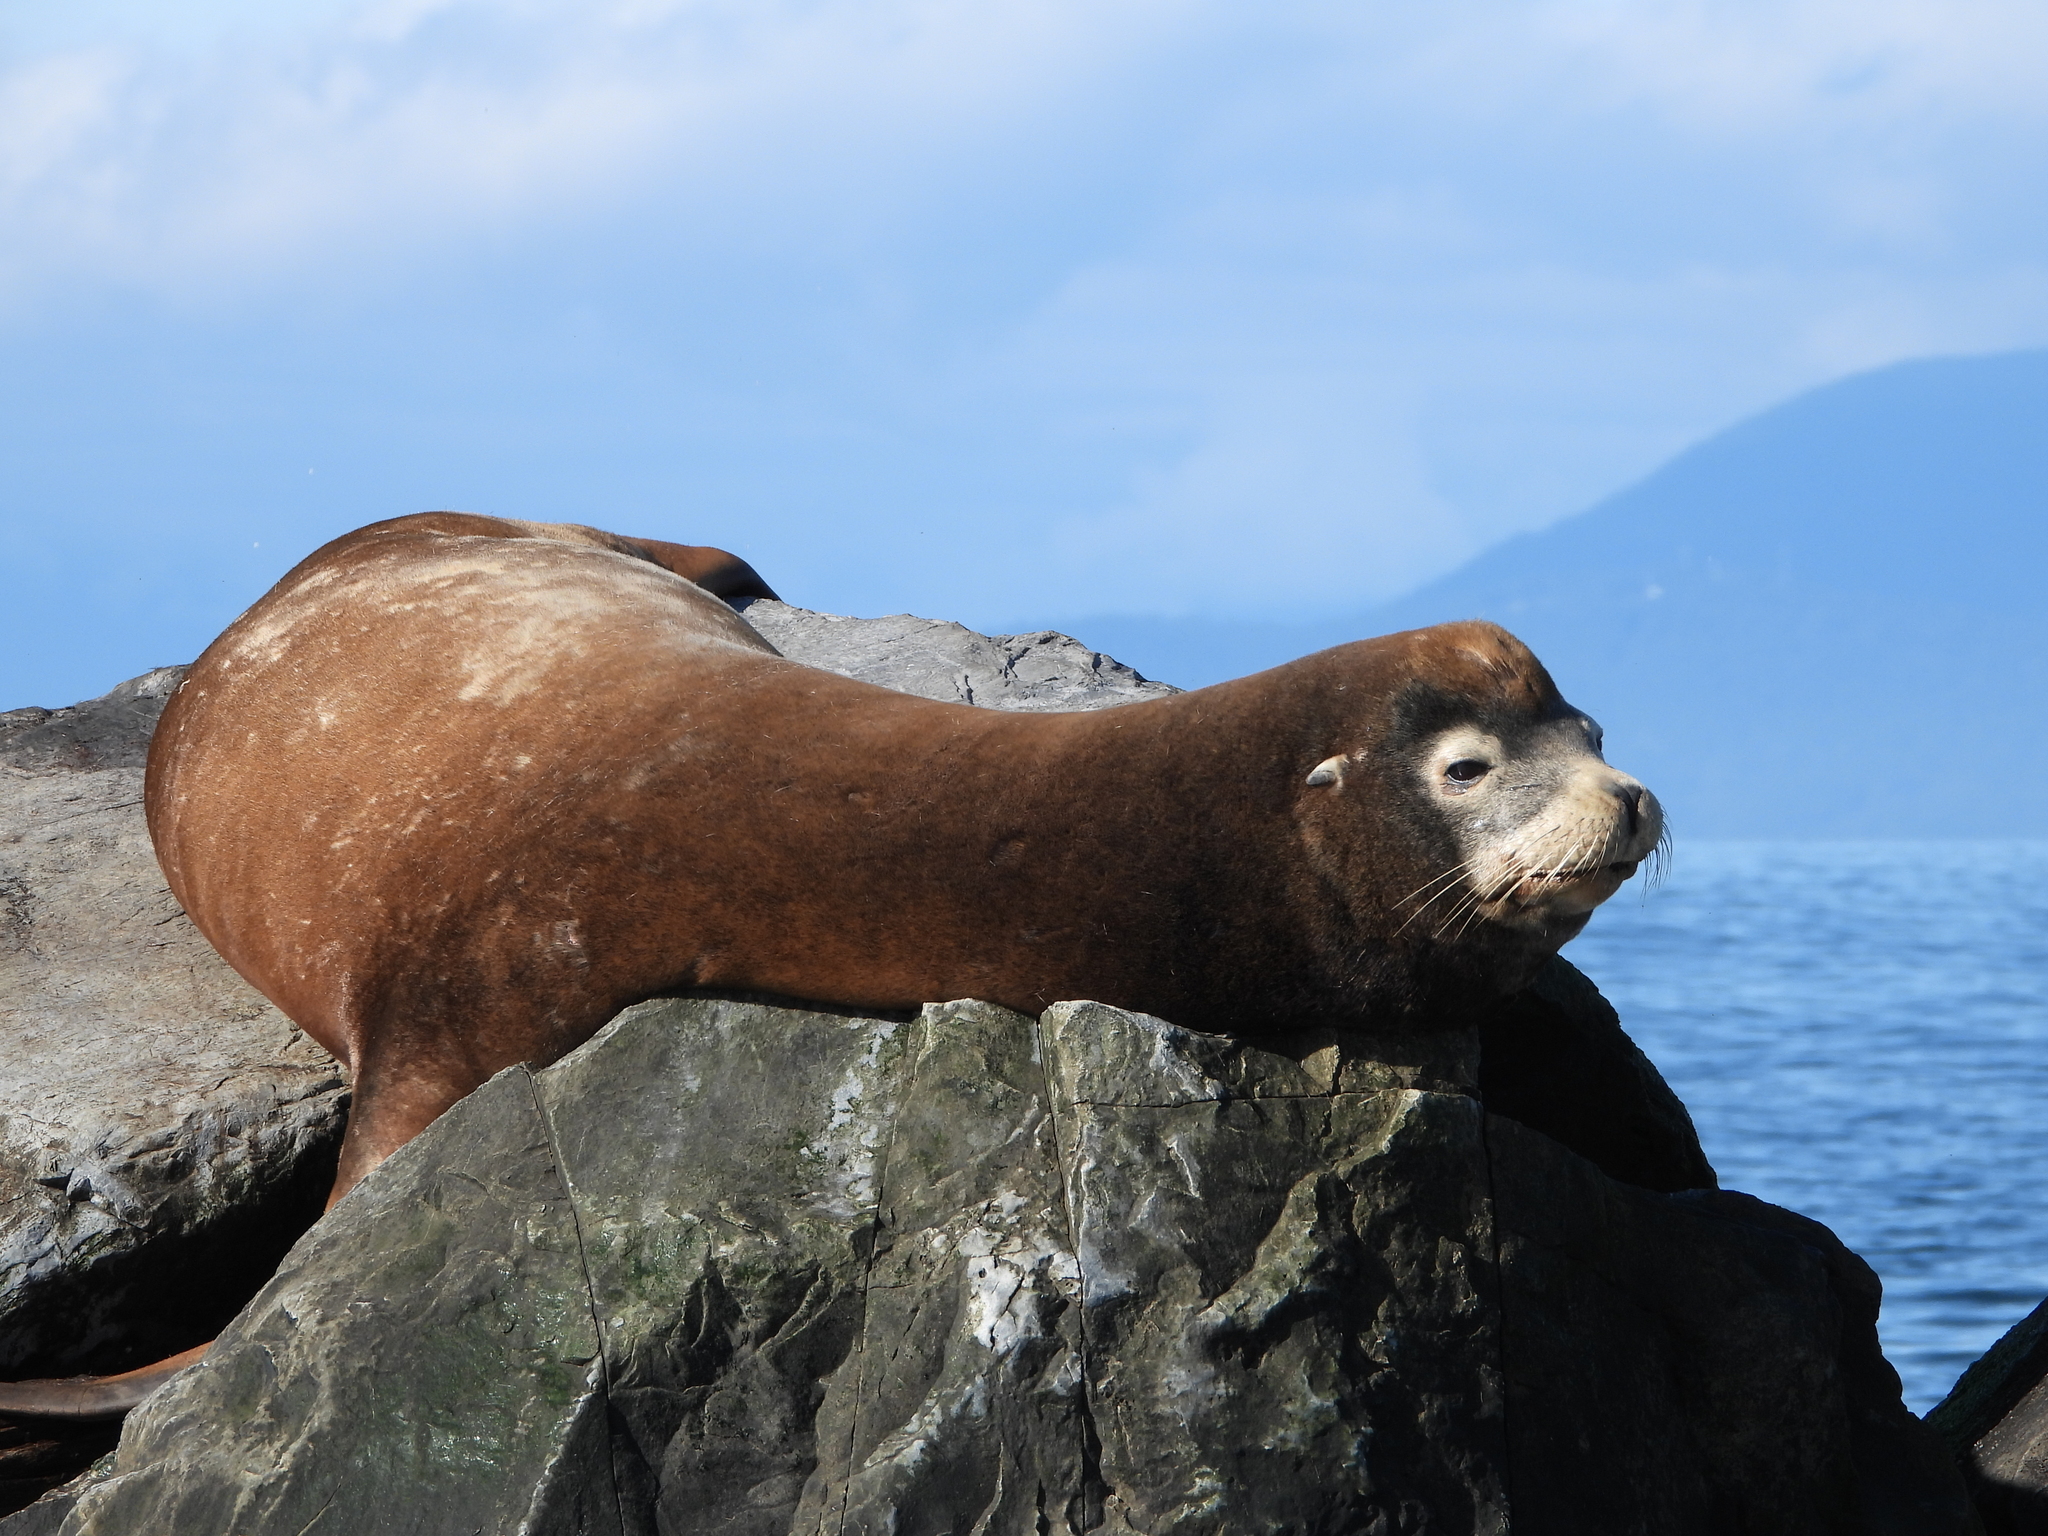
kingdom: Animalia
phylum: Chordata
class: Mammalia
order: Carnivora
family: Otariidae
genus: Zalophus
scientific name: Zalophus californianus
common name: California sea lion
